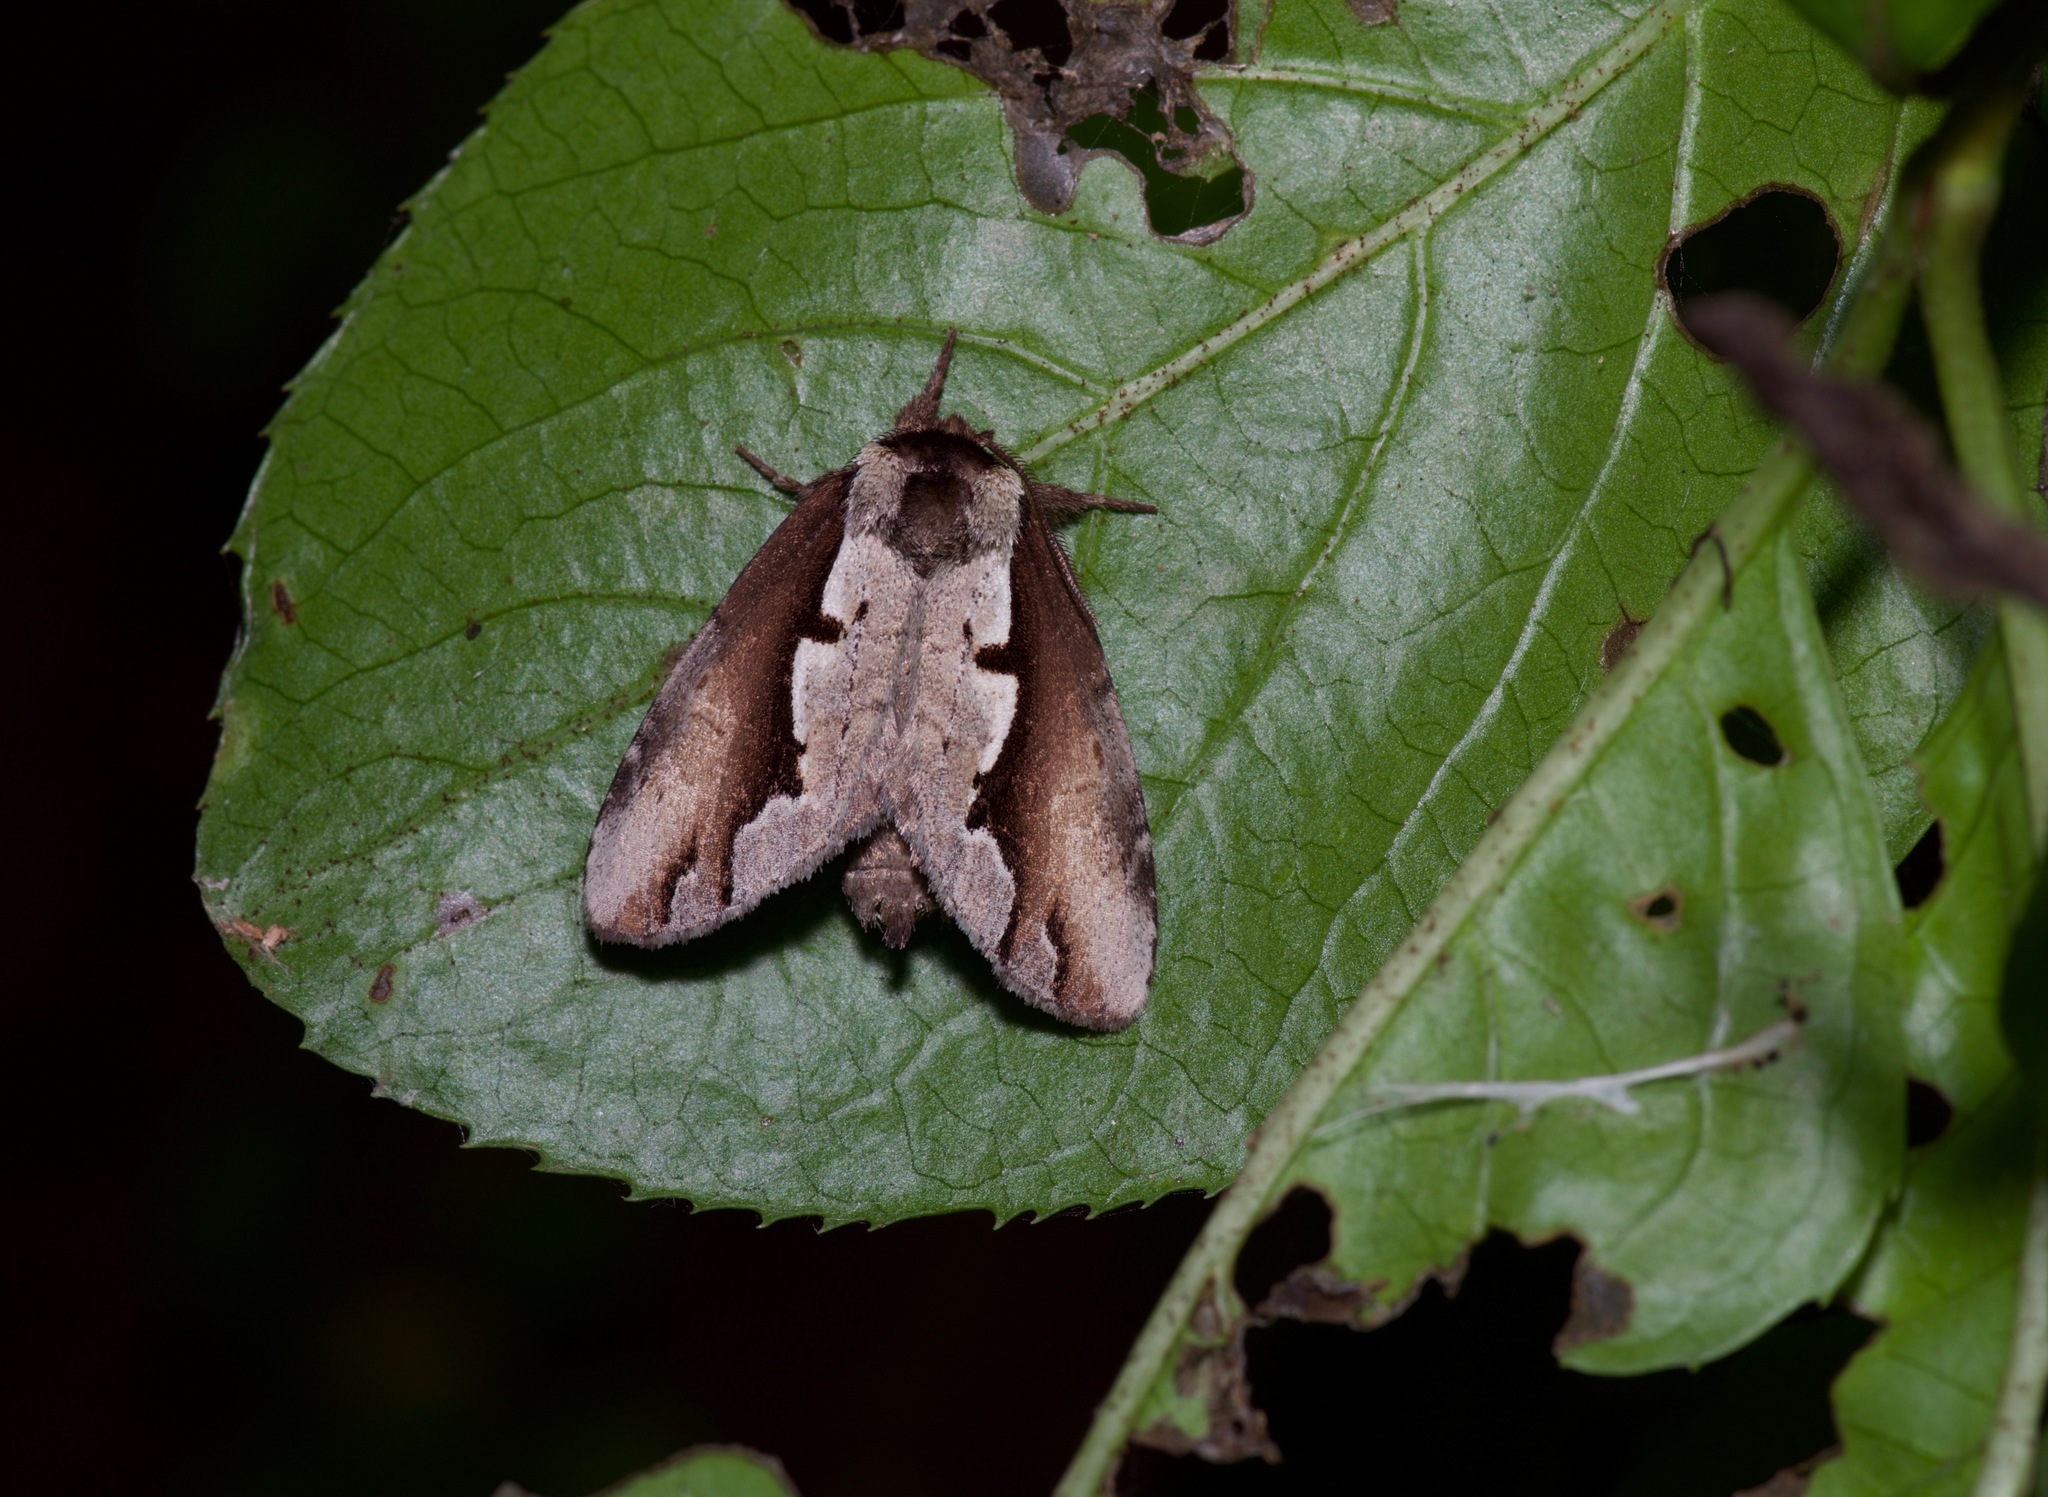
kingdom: Animalia
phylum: Arthropoda
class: Insecta
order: Lepidoptera
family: Notodontidae
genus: Nerice
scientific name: Nerice bidentata
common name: Double-toothed prominent
